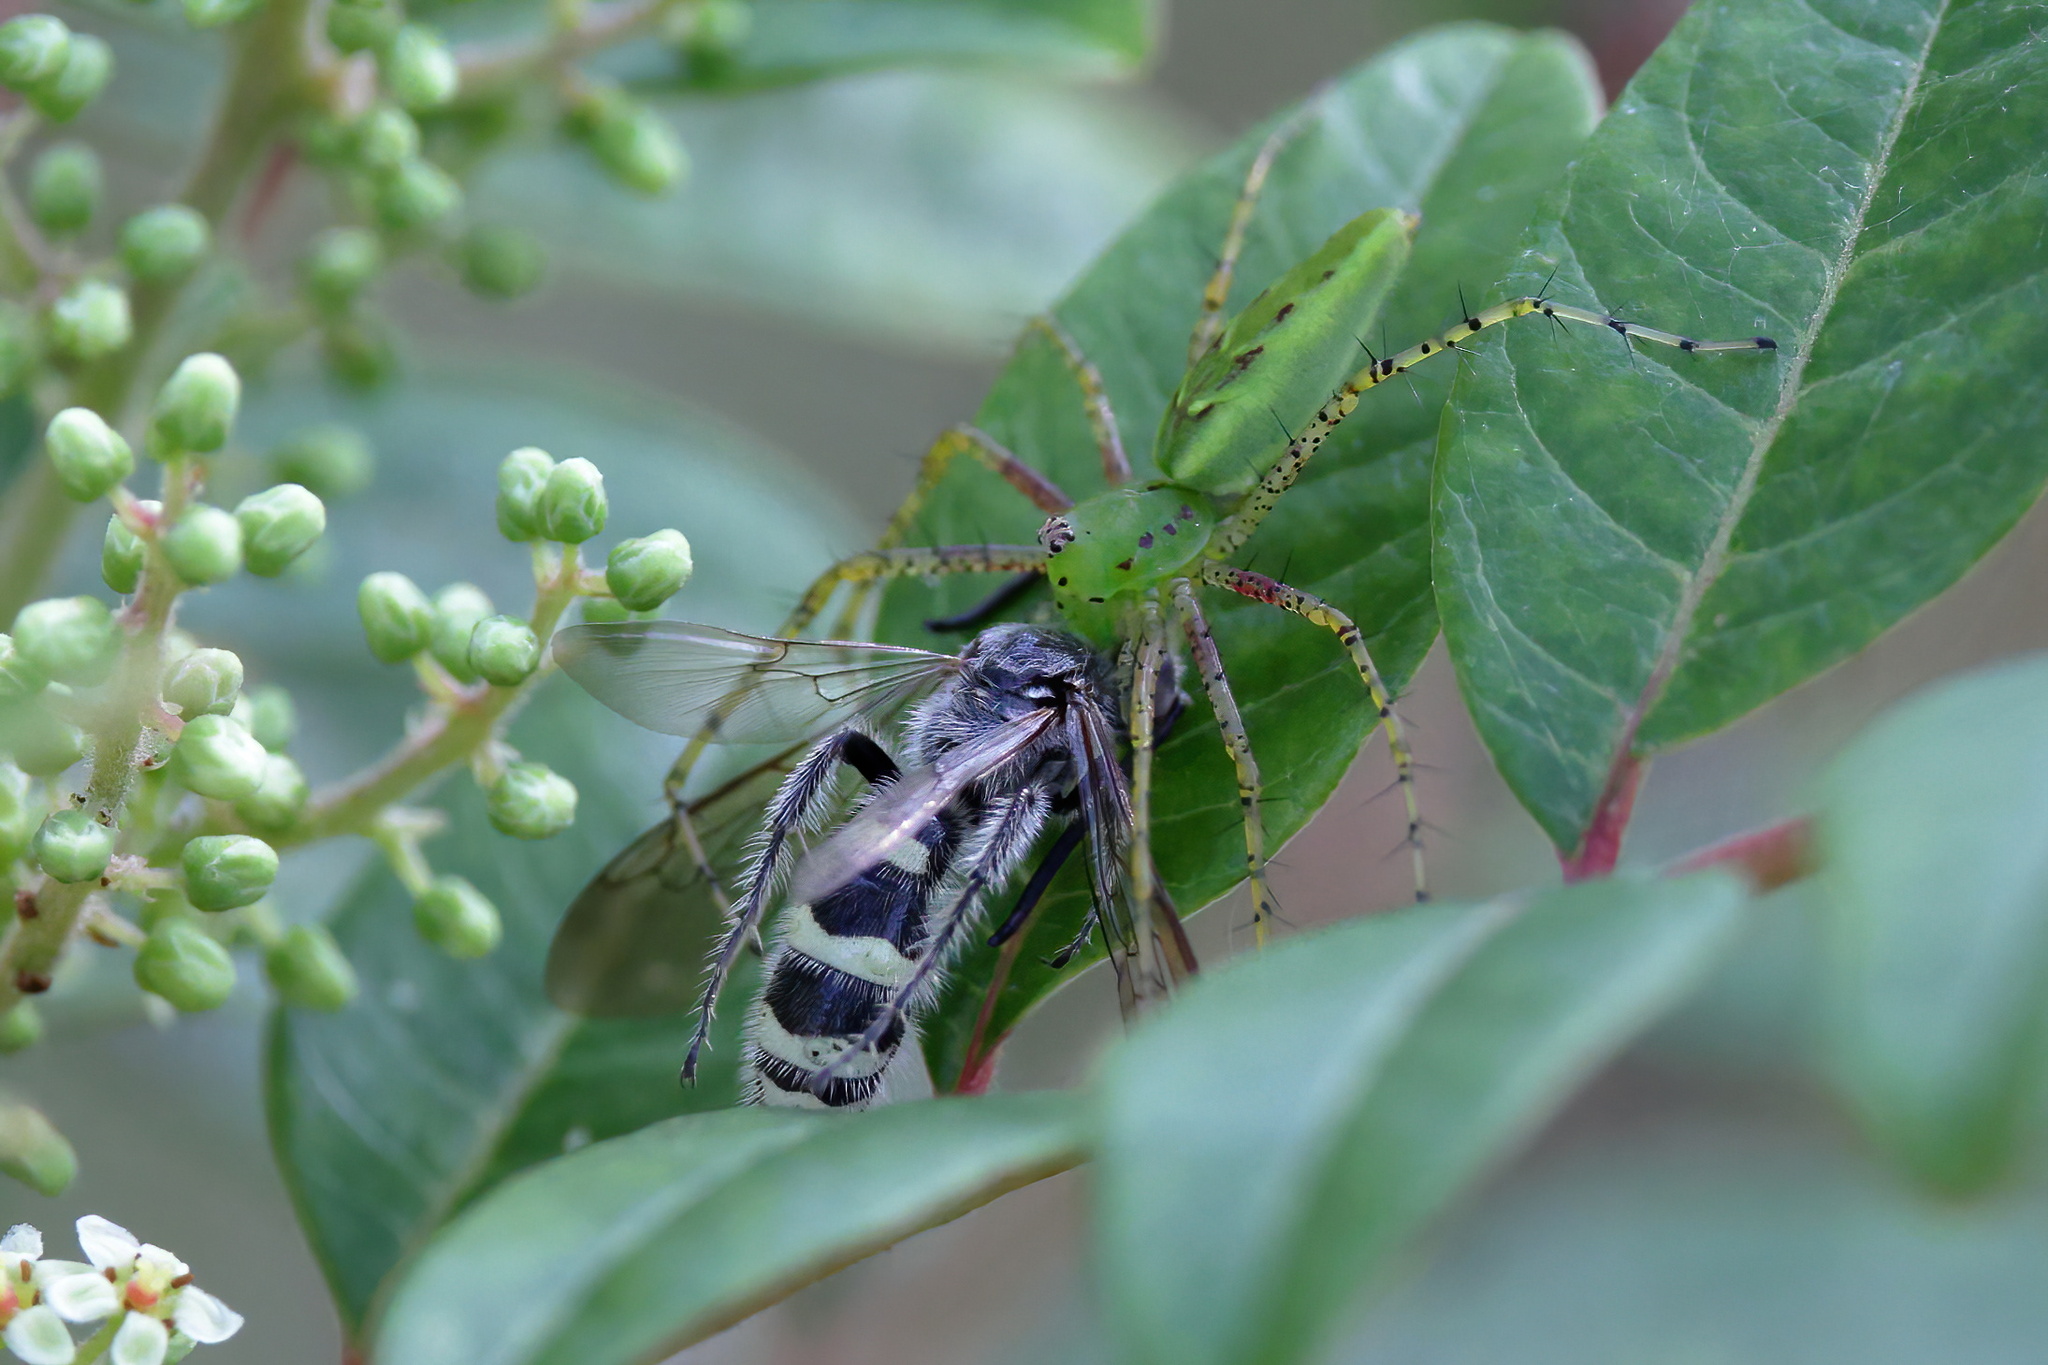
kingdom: Animalia
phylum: Arthropoda
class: Insecta
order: Hymenoptera
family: Scoliidae
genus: Dielis
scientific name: Dielis
